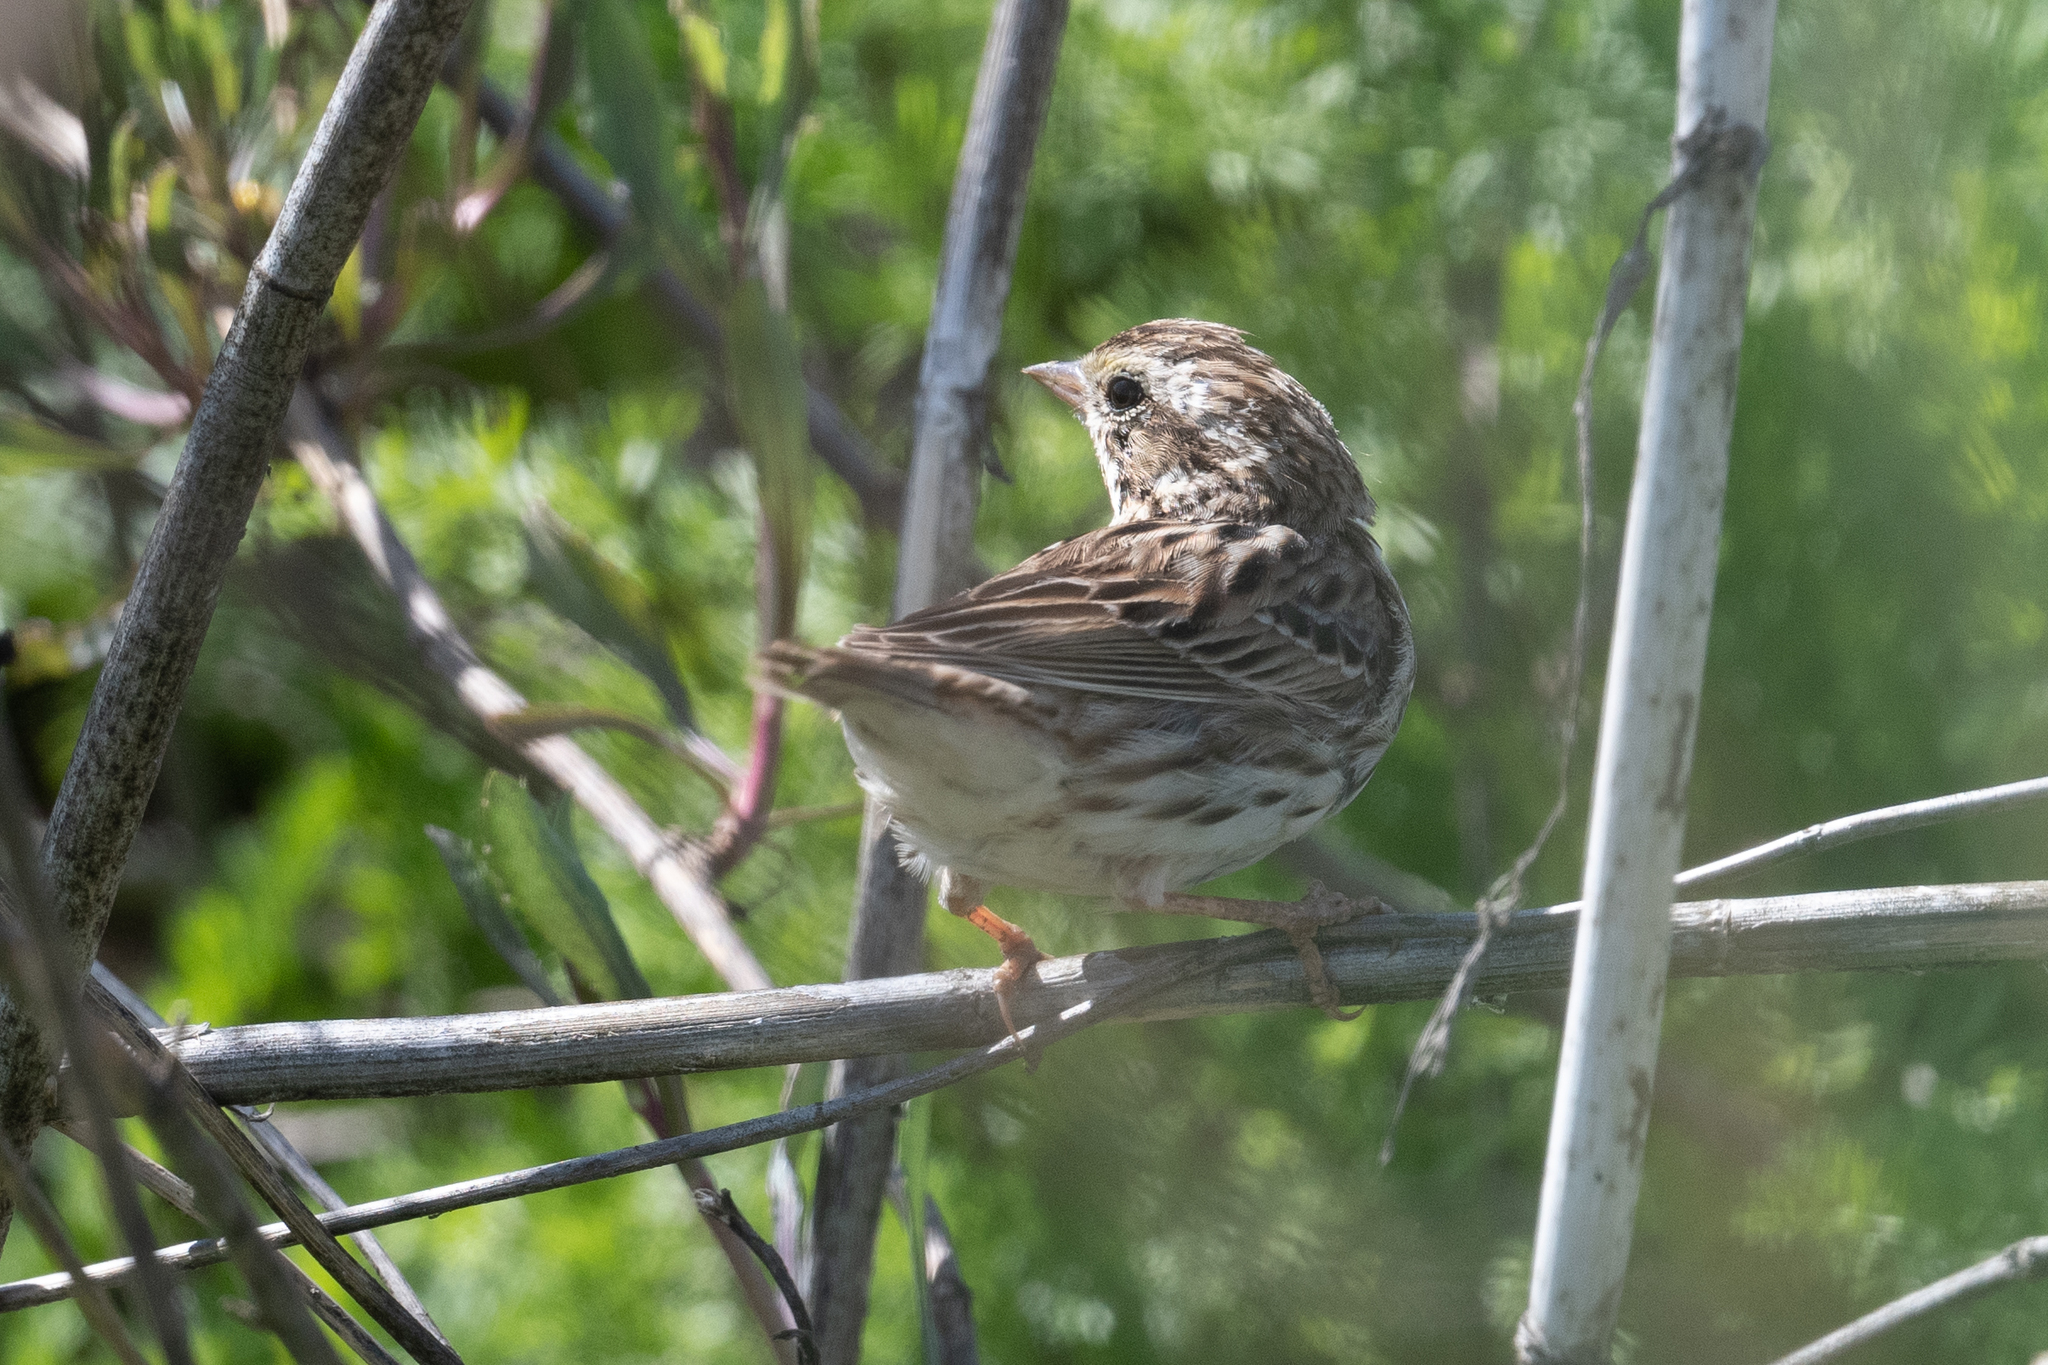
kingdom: Animalia
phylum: Chordata
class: Aves
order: Passeriformes
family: Passerellidae
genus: Passerculus
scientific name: Passerculus sandwichensis
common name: Savannah sparrow
